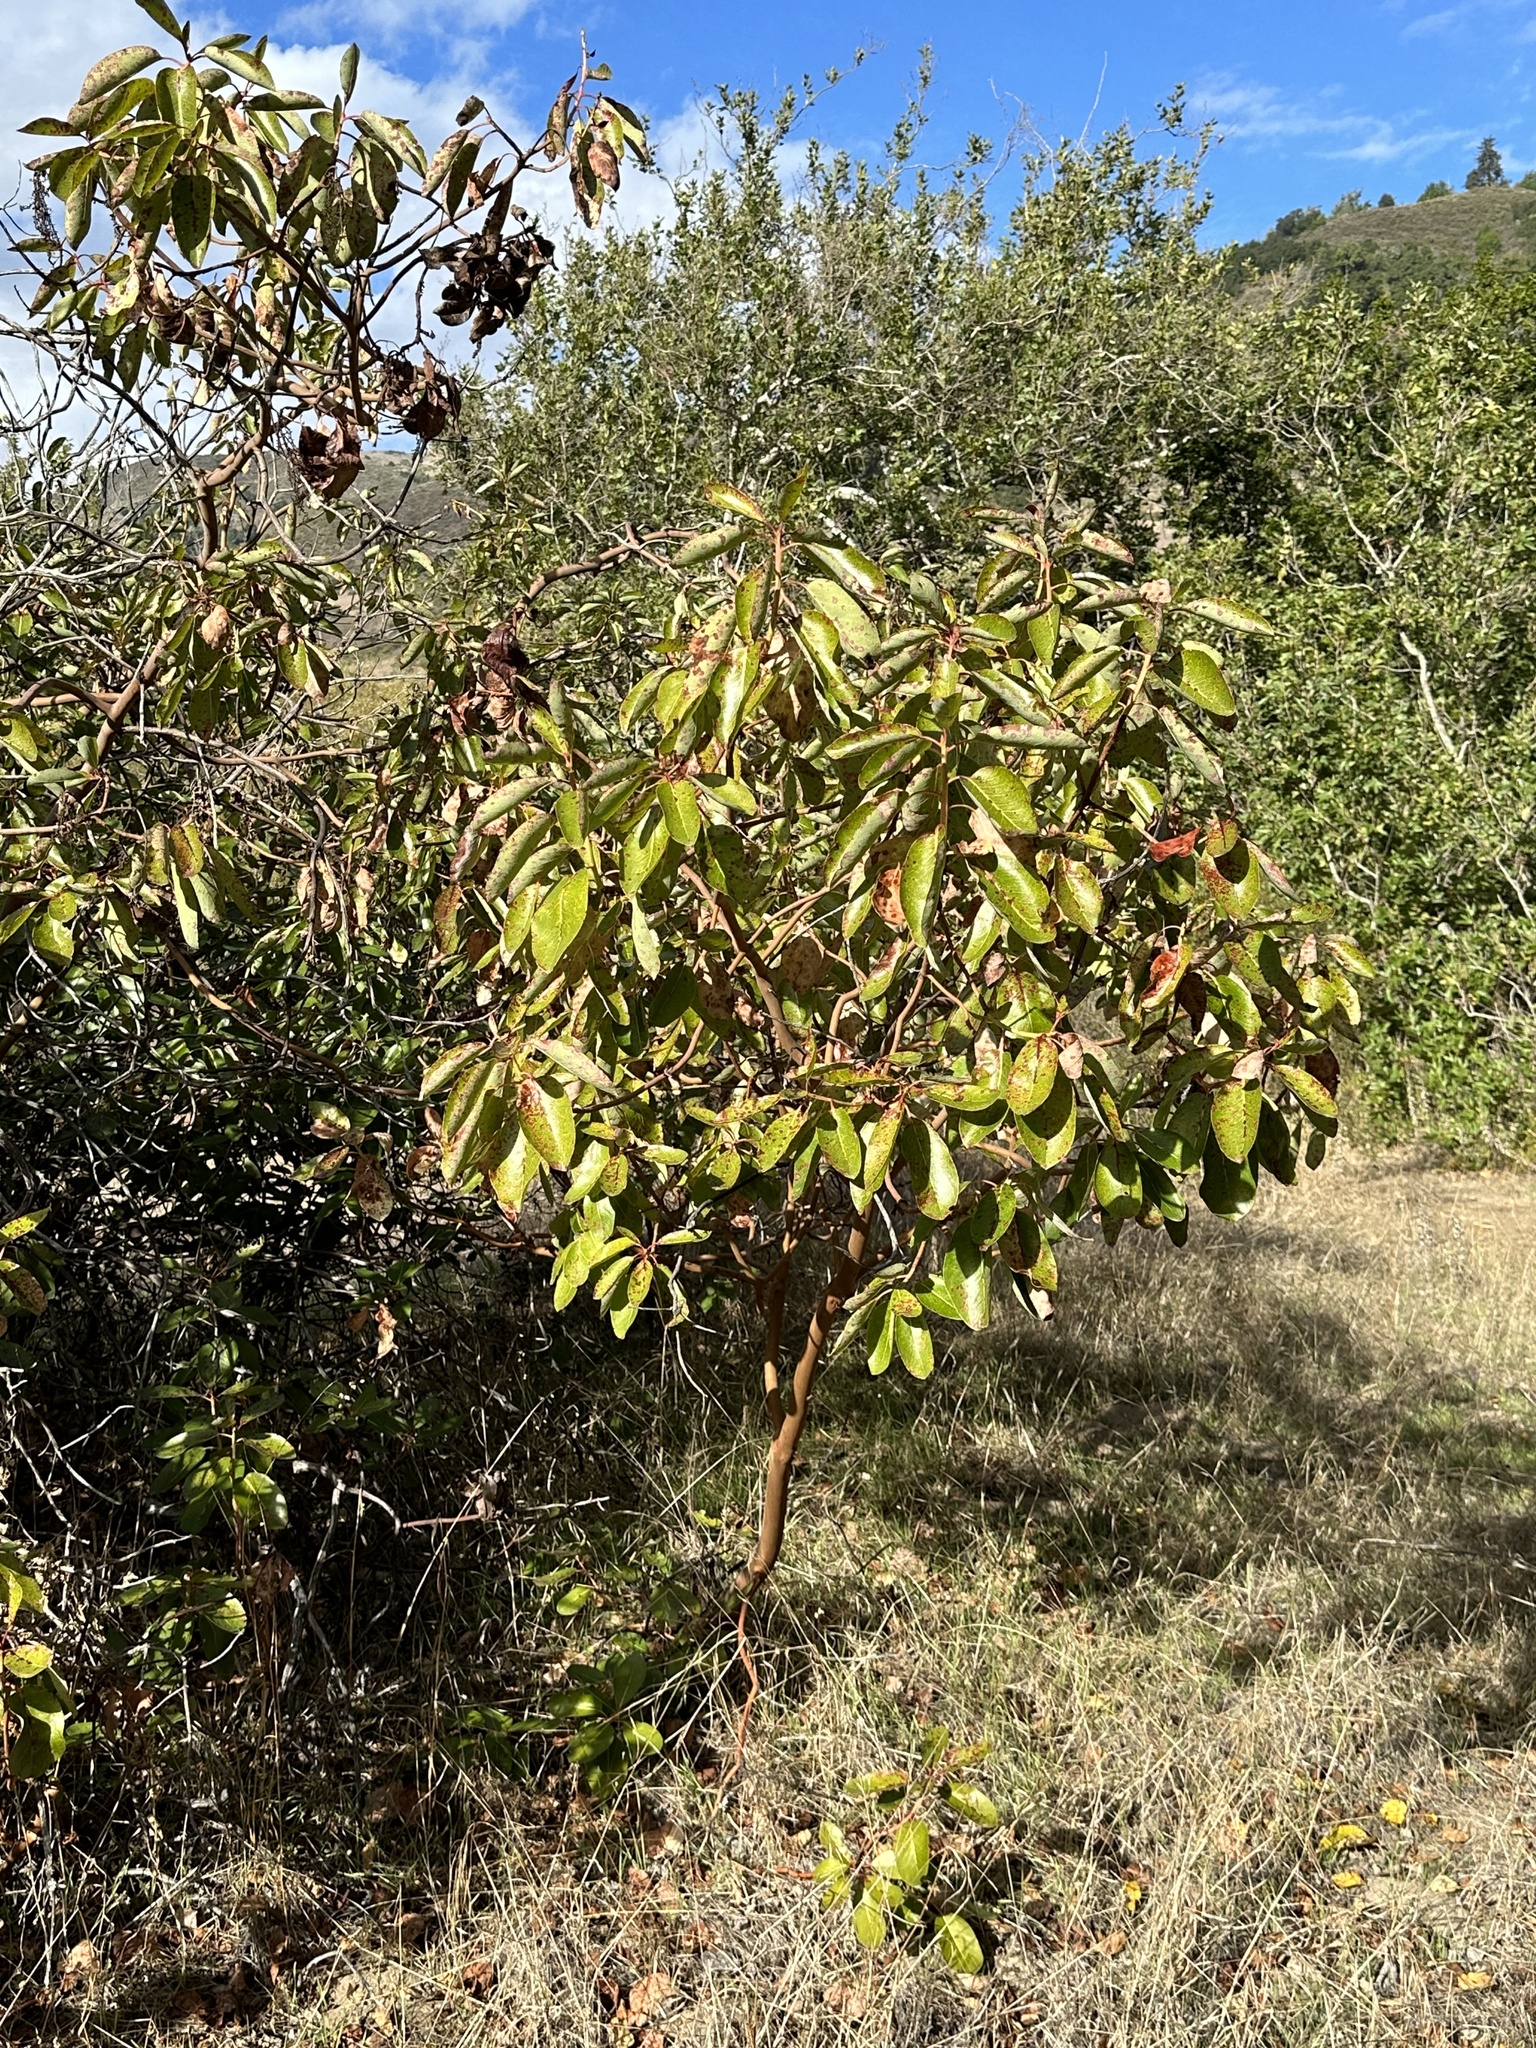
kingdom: Plantae
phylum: Tracheophyta
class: Magnoliopsida
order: Ericales
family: Ericaceae
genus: Arbutus
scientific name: Arbutus menziesii
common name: Pacific madrone
